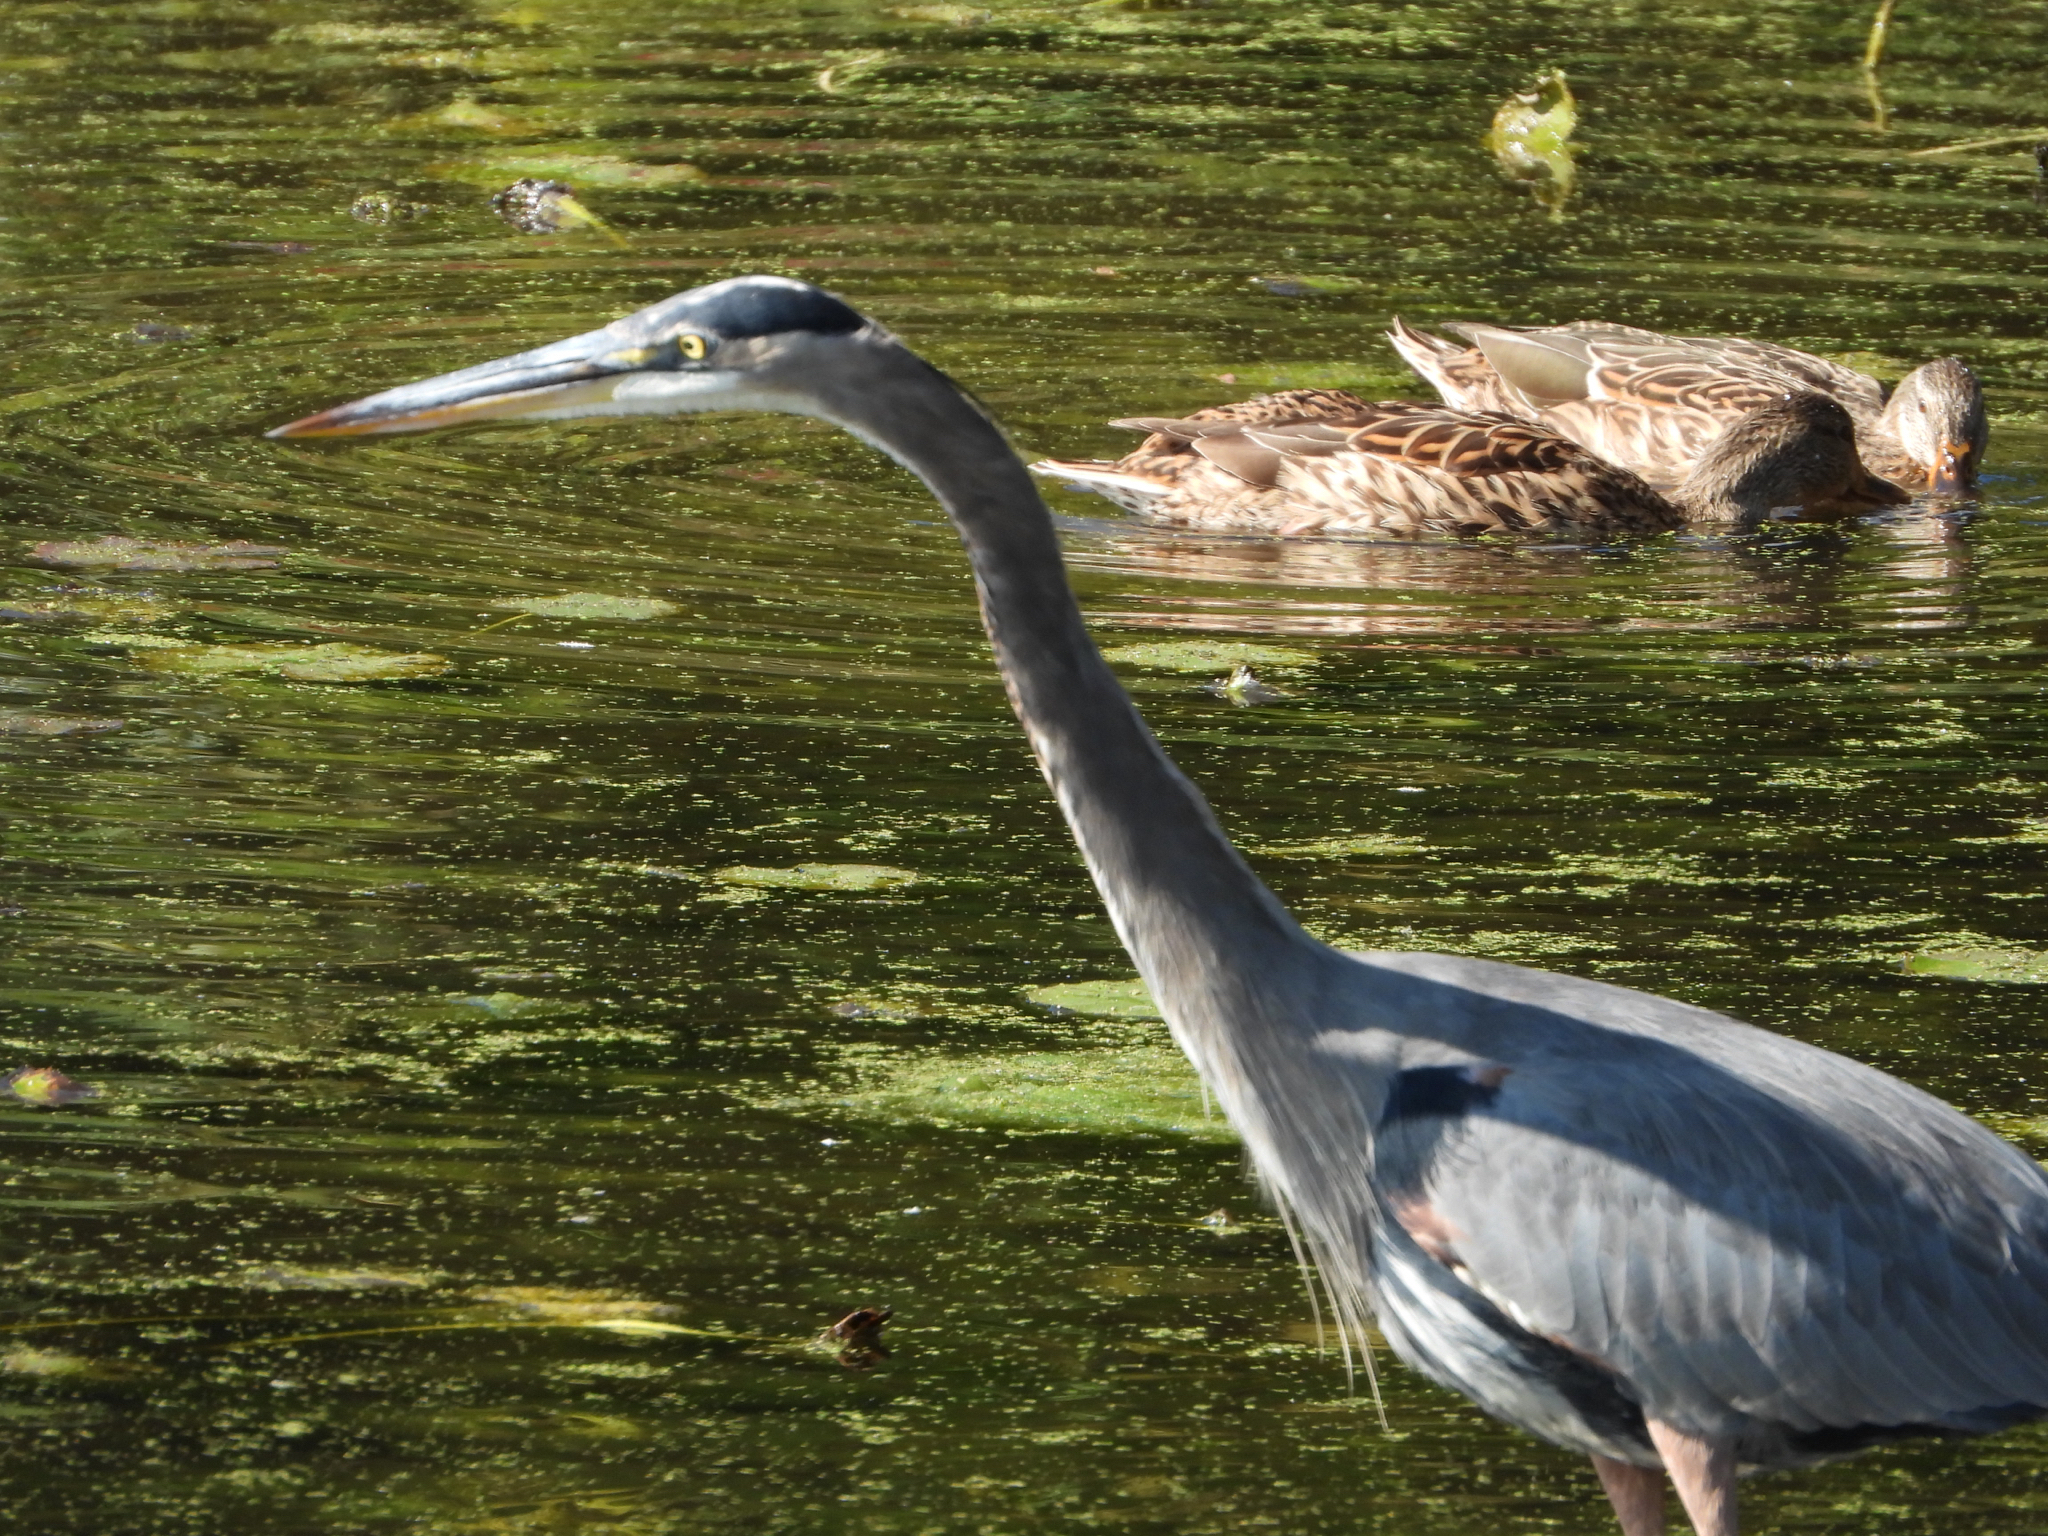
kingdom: Animalia
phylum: Chordata
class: Aves
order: Pelecaniformes
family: Ardeidae
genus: Ardea
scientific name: Ardea herodias
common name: Great blue heron
